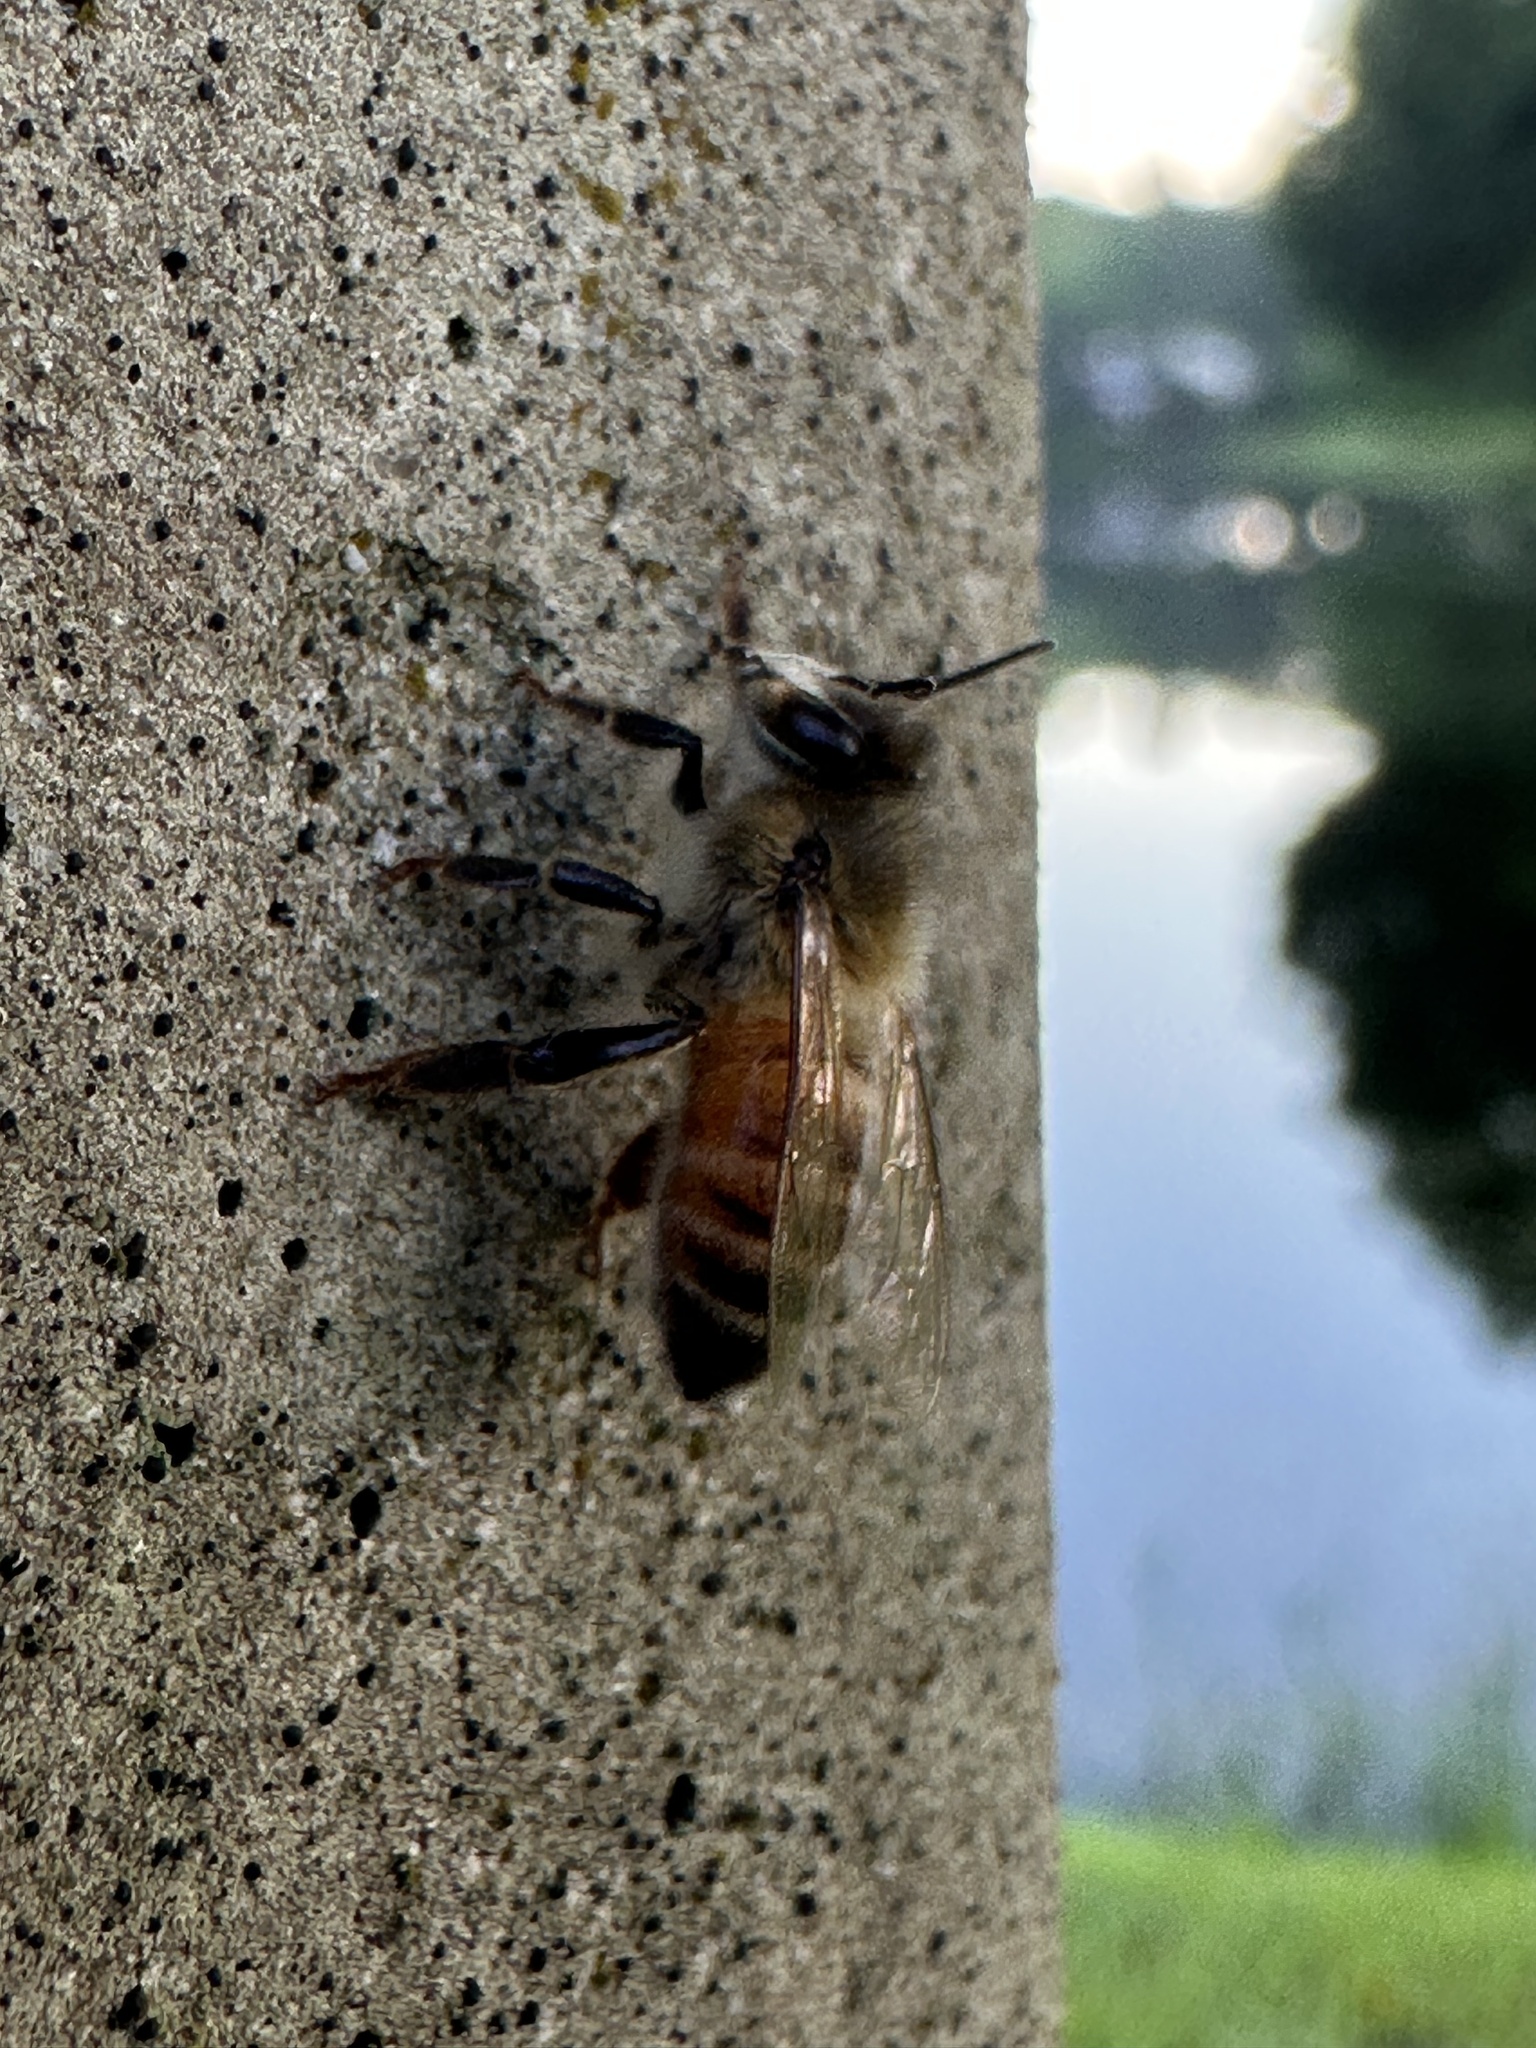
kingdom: Animalia
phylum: Arthropoda
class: Insecta
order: Hymenoptera
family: Apidae
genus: Apis
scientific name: Apis mellifera
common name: Honey bee
